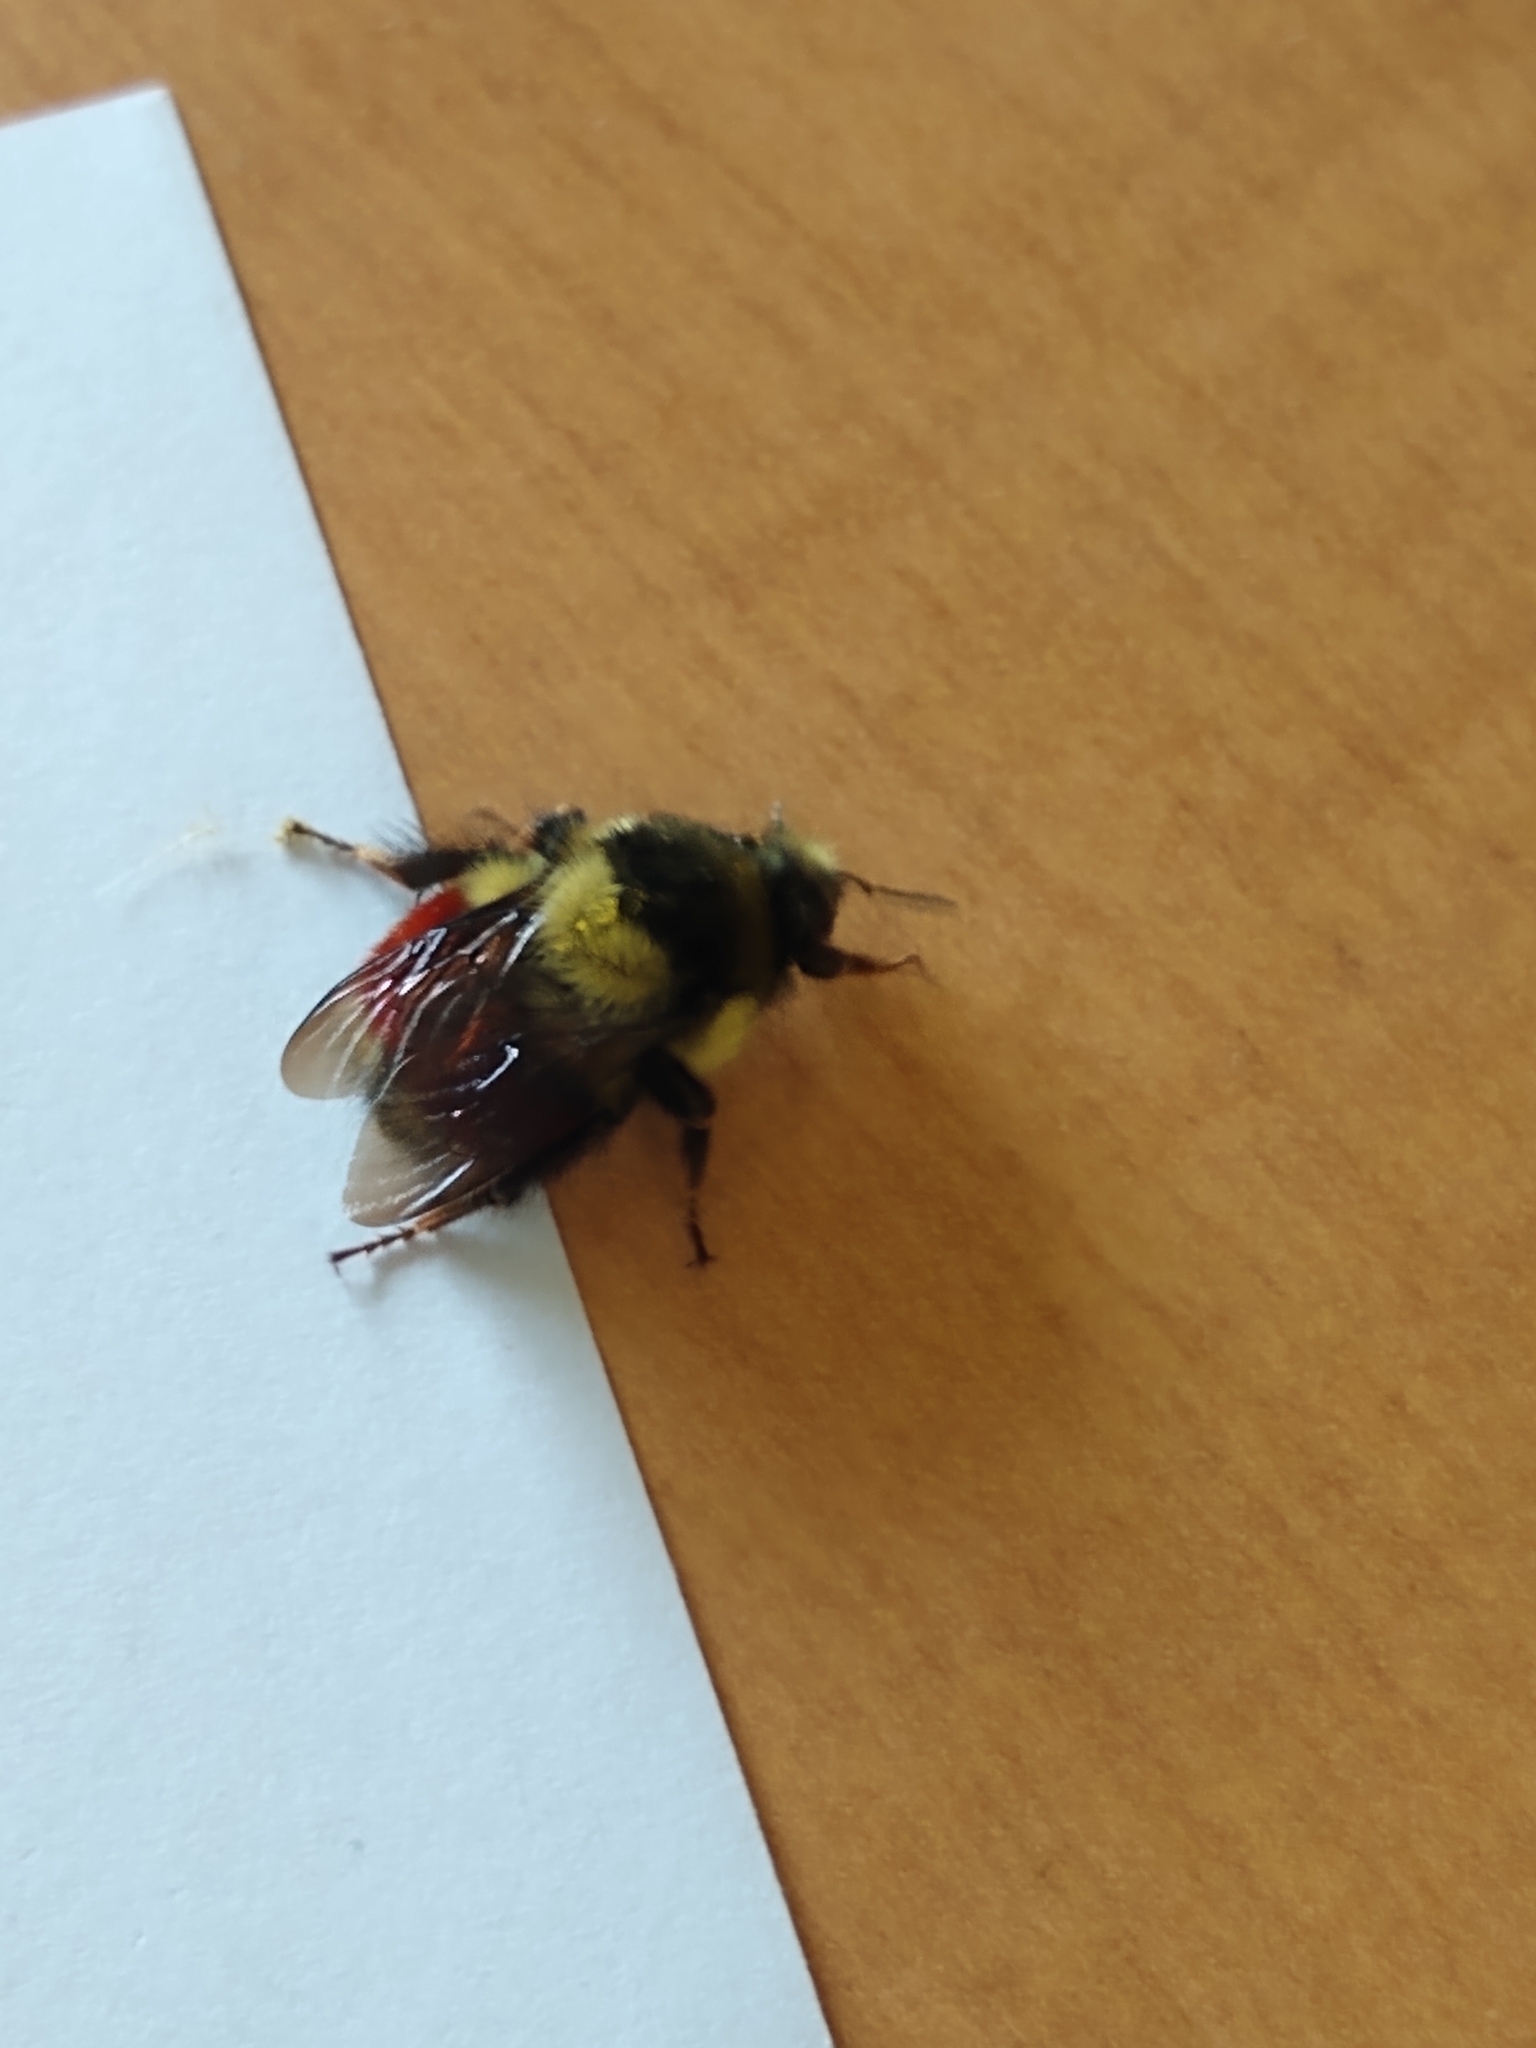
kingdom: Animalia
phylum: Arthropoda
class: Insecta
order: Hymenoptera
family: Apidae
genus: Bombus
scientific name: Bombus melanopygus
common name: Black tail bumble bee
